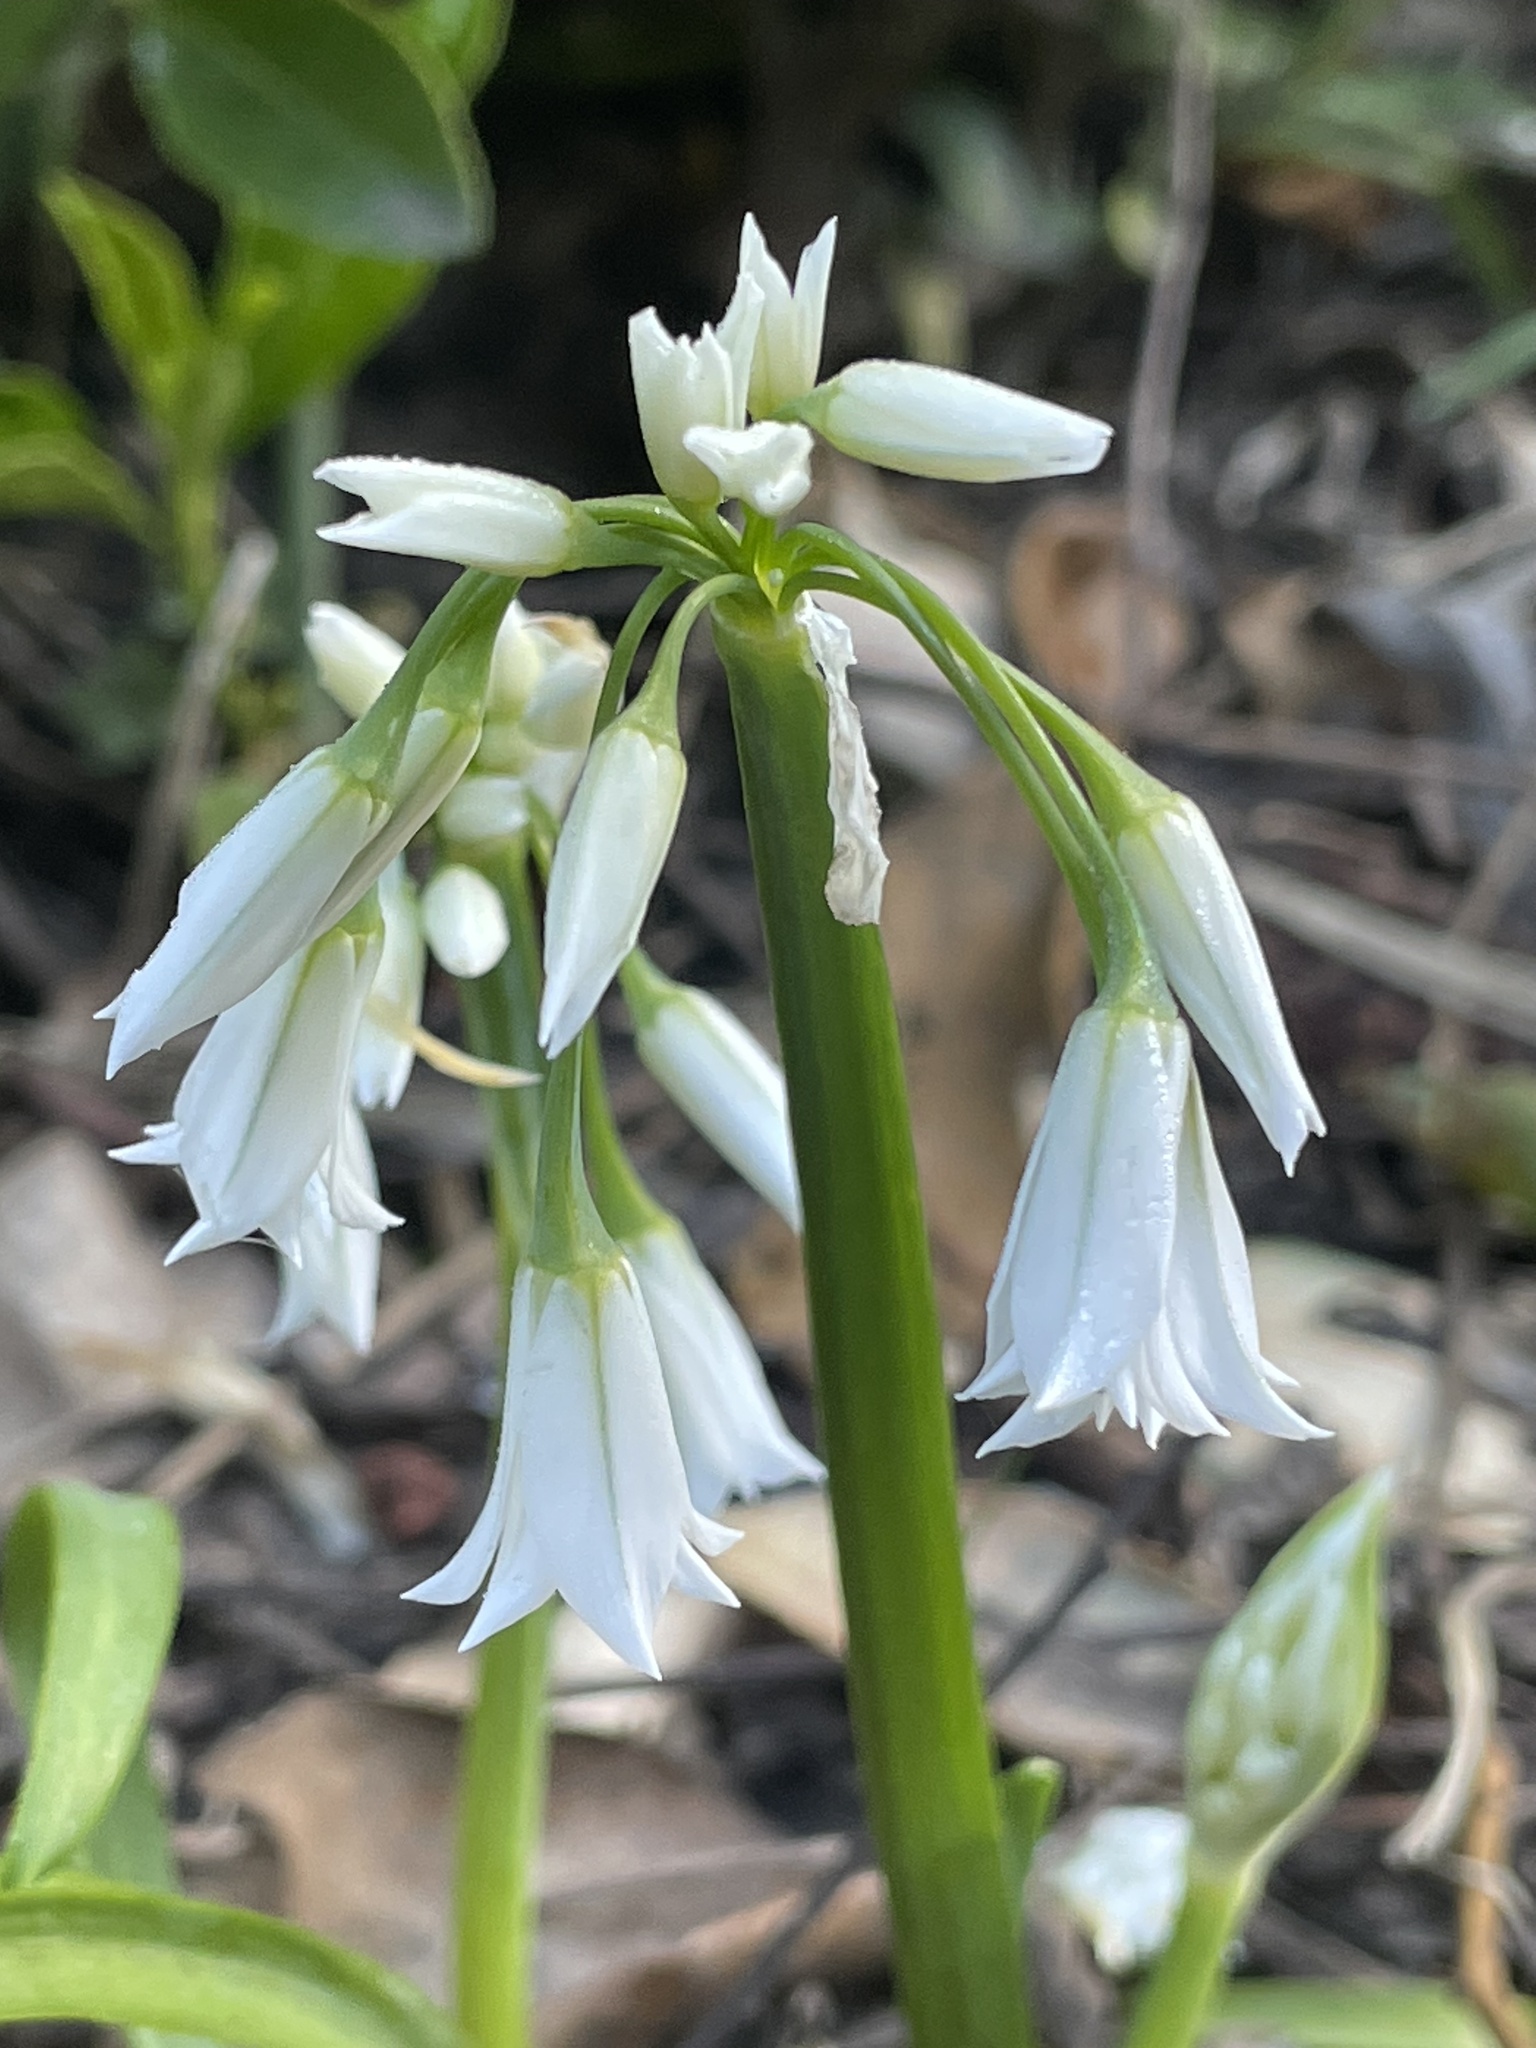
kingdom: Plantae
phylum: Tracheophyta
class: Liliopsida
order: Asparagales
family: Amaryllidaceae
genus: Allium
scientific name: Allium triquetrum
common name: Three-cornered garlic
